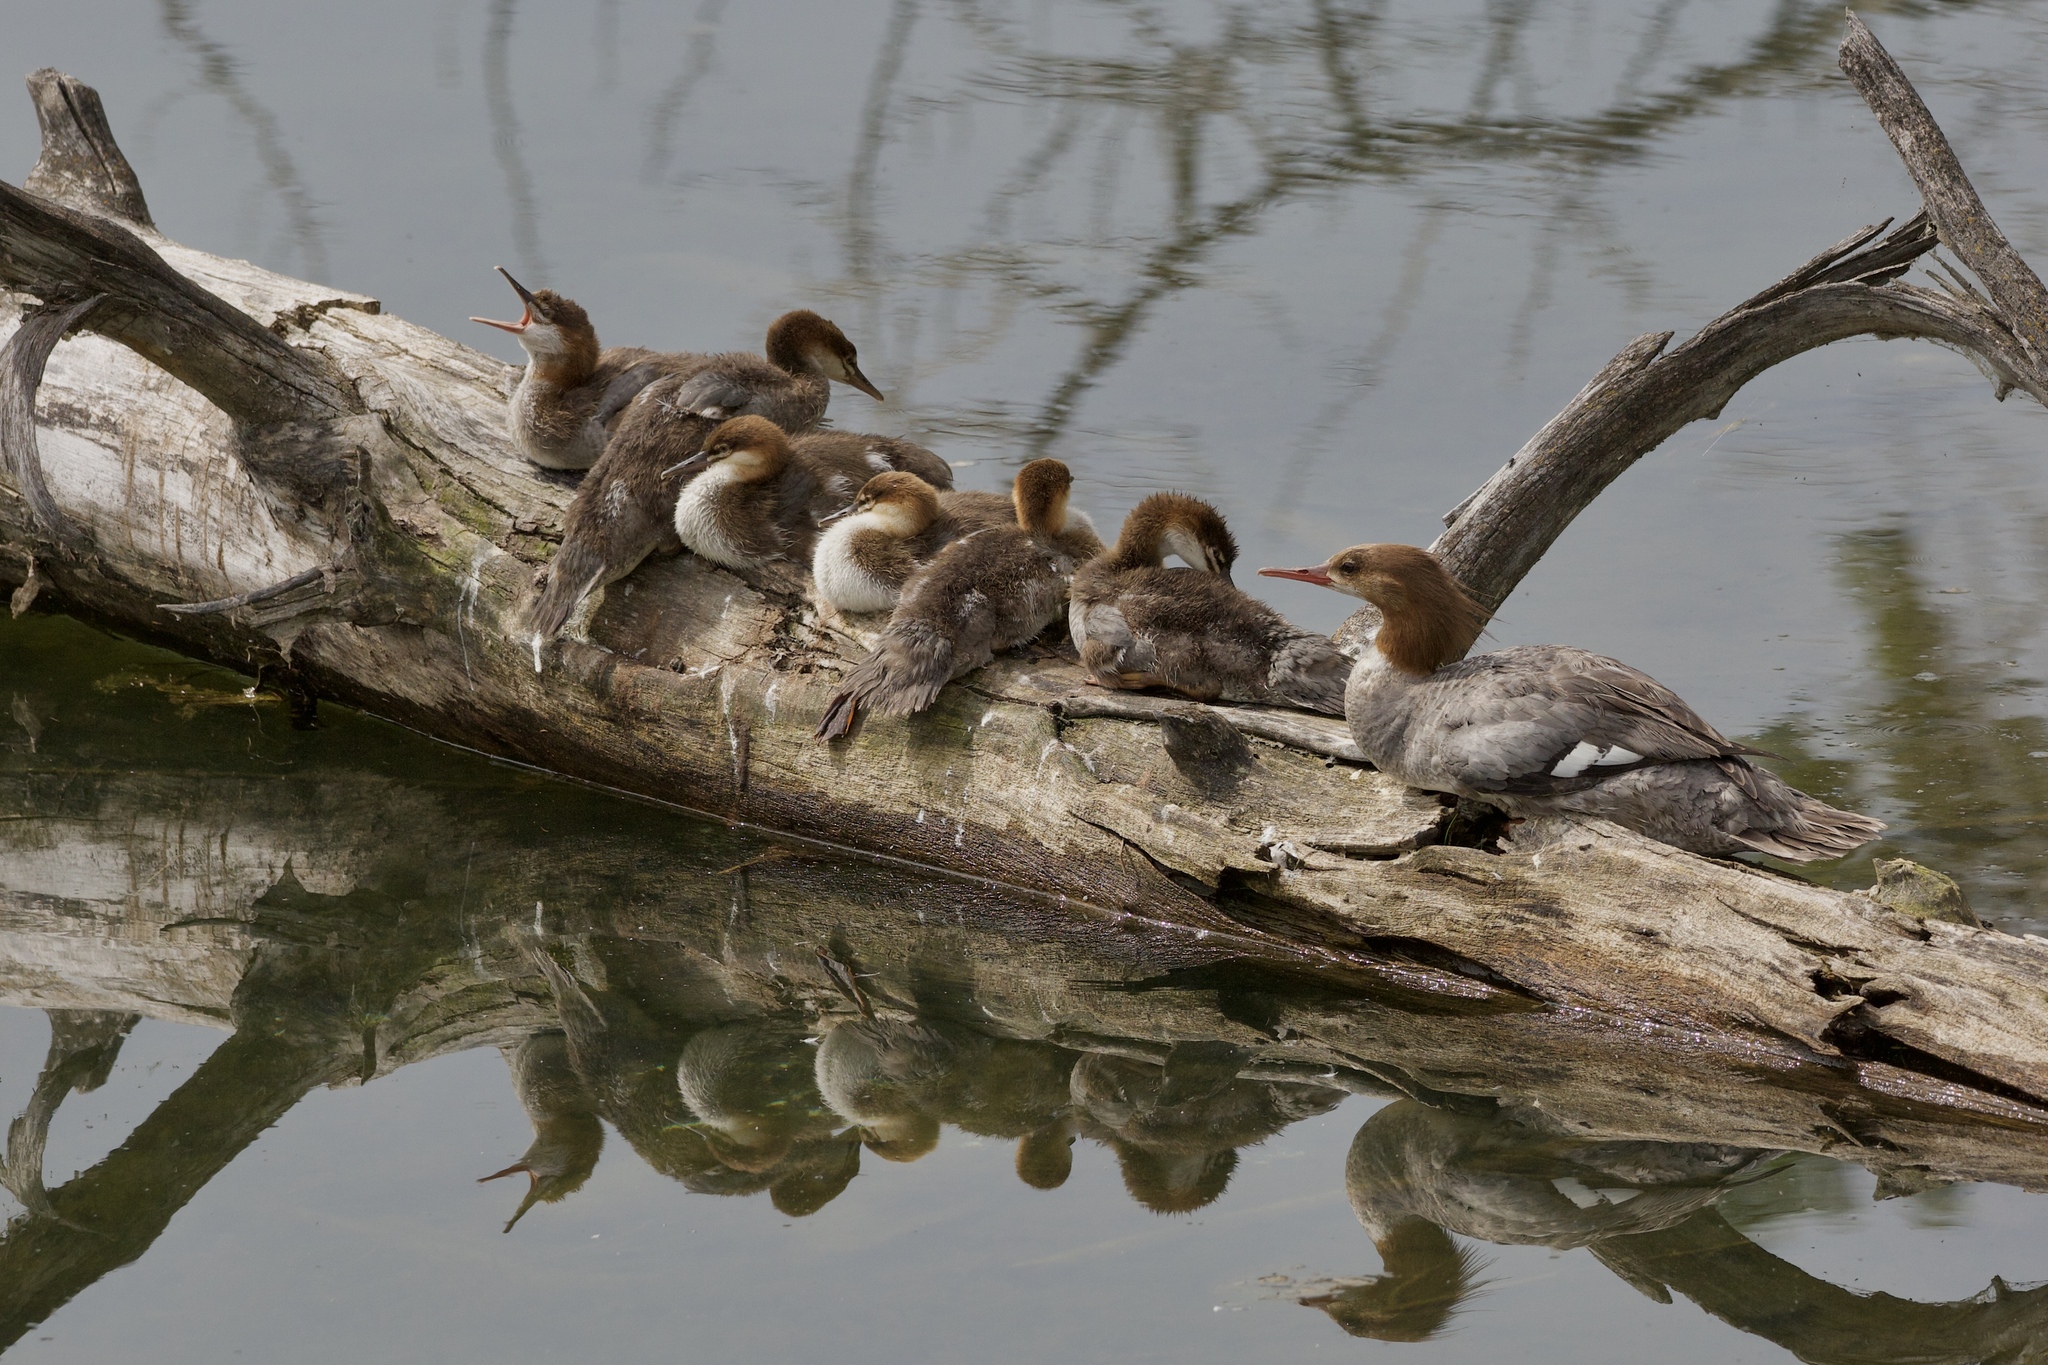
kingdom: Animalia
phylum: Chordata
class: Aves
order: Anseriformes
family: Anatidae
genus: Mergus
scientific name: Mergus merganser
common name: Common merganser
